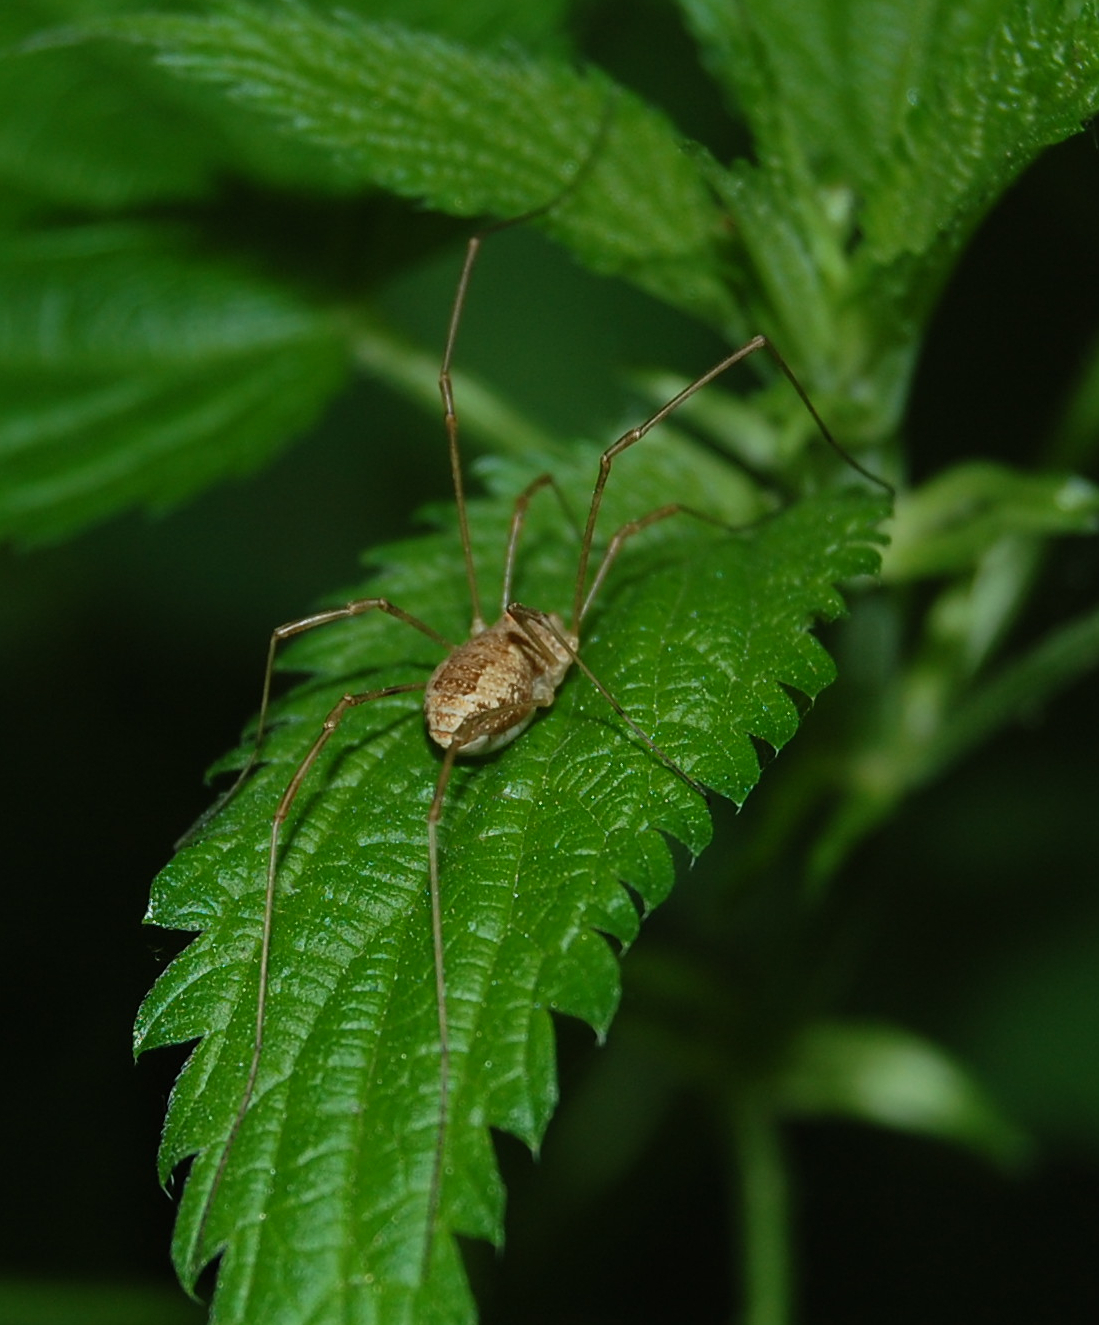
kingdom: Animalia
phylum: Arthropoda
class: Arachnida
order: Opiliones
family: Phalangiidae
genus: Rilaena
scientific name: Rilaena triangularis
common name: Spring harvestman
